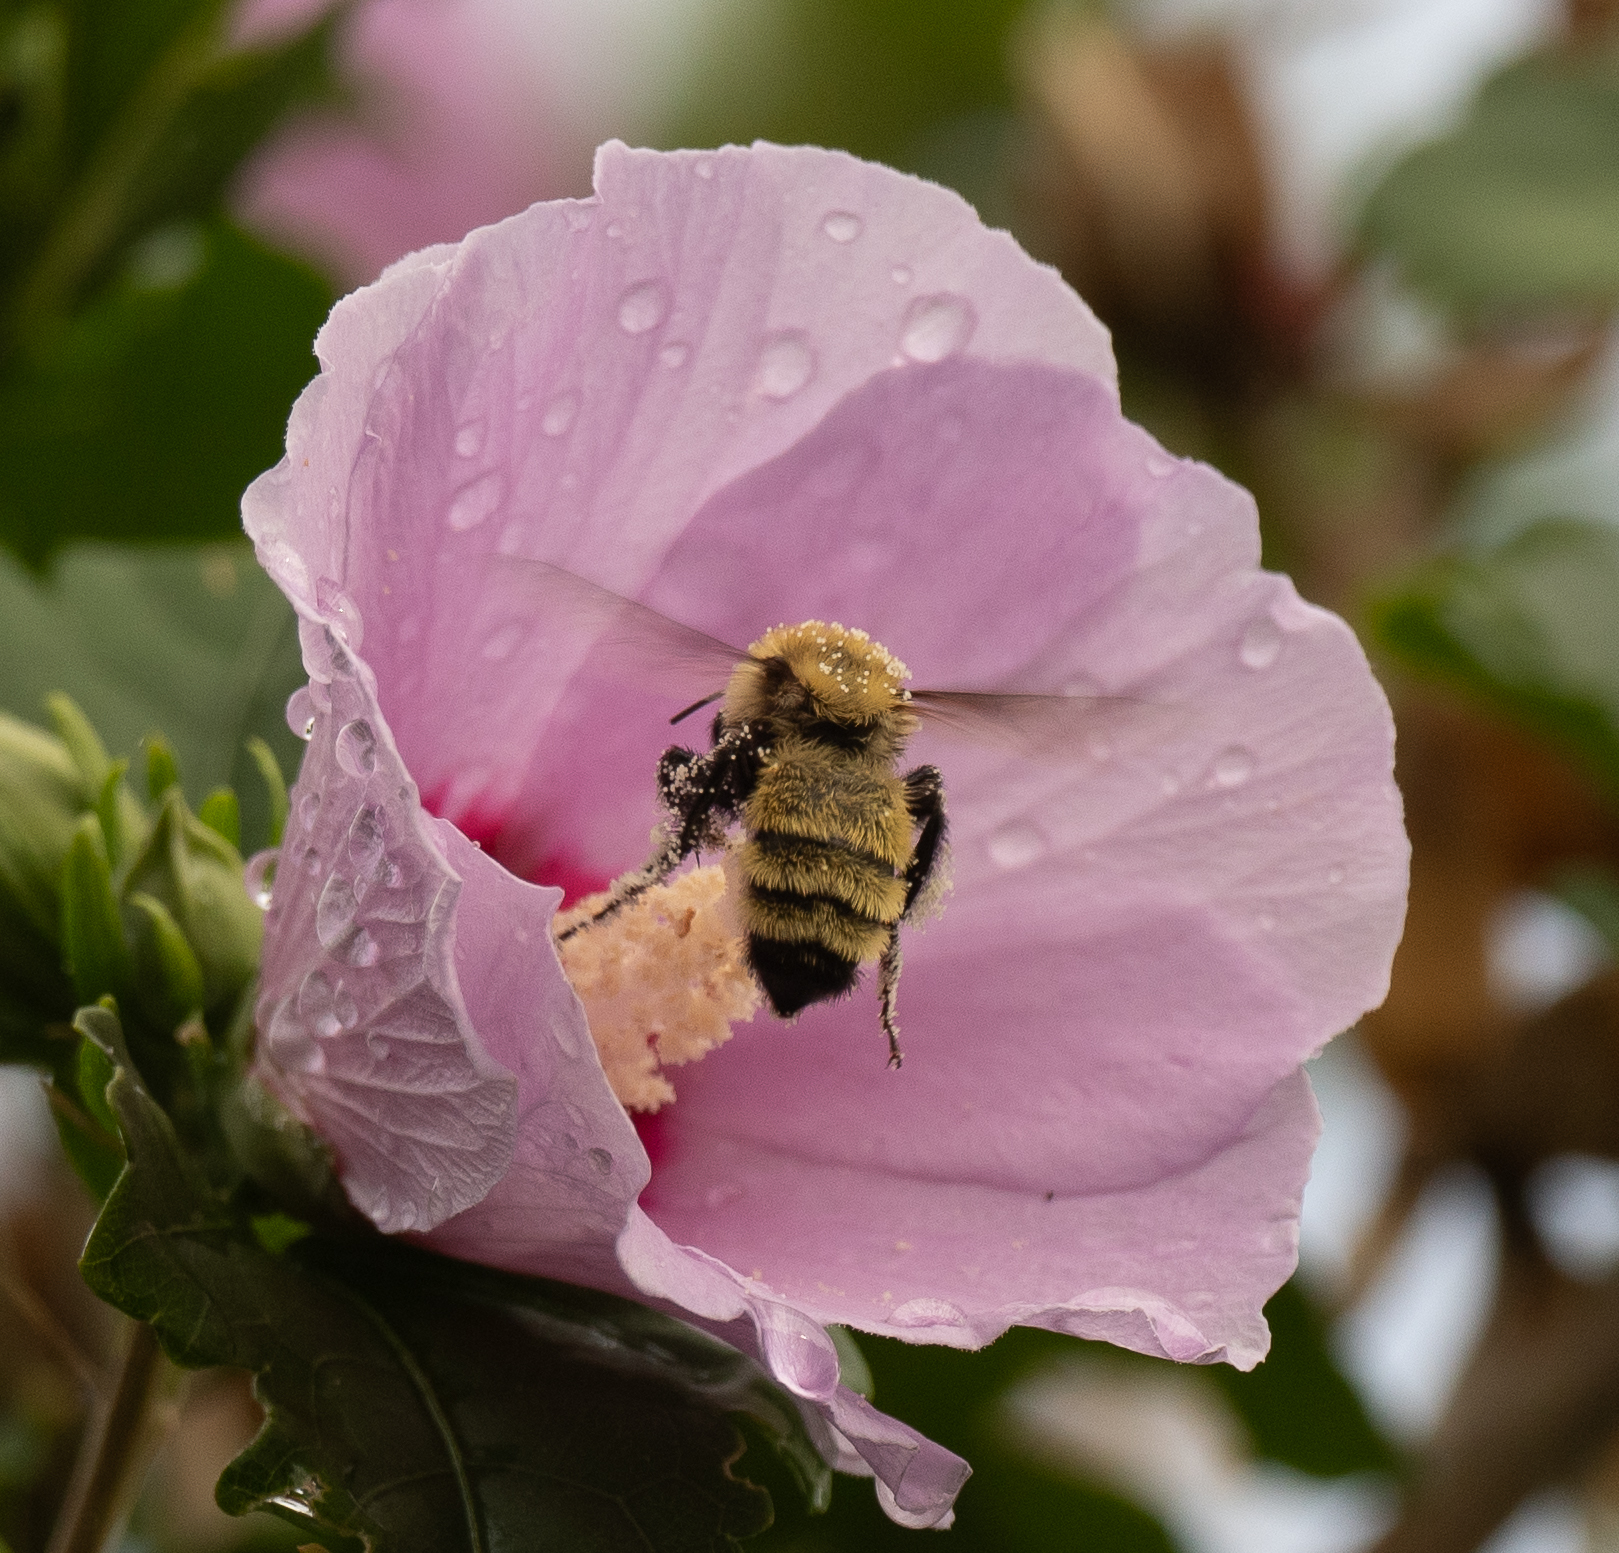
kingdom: Animalia
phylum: Arthropoda
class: Insecta
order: Hymenoptera
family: Apidae
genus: Bombus
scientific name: Bombus fervidus
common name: Yellow bumble bee
